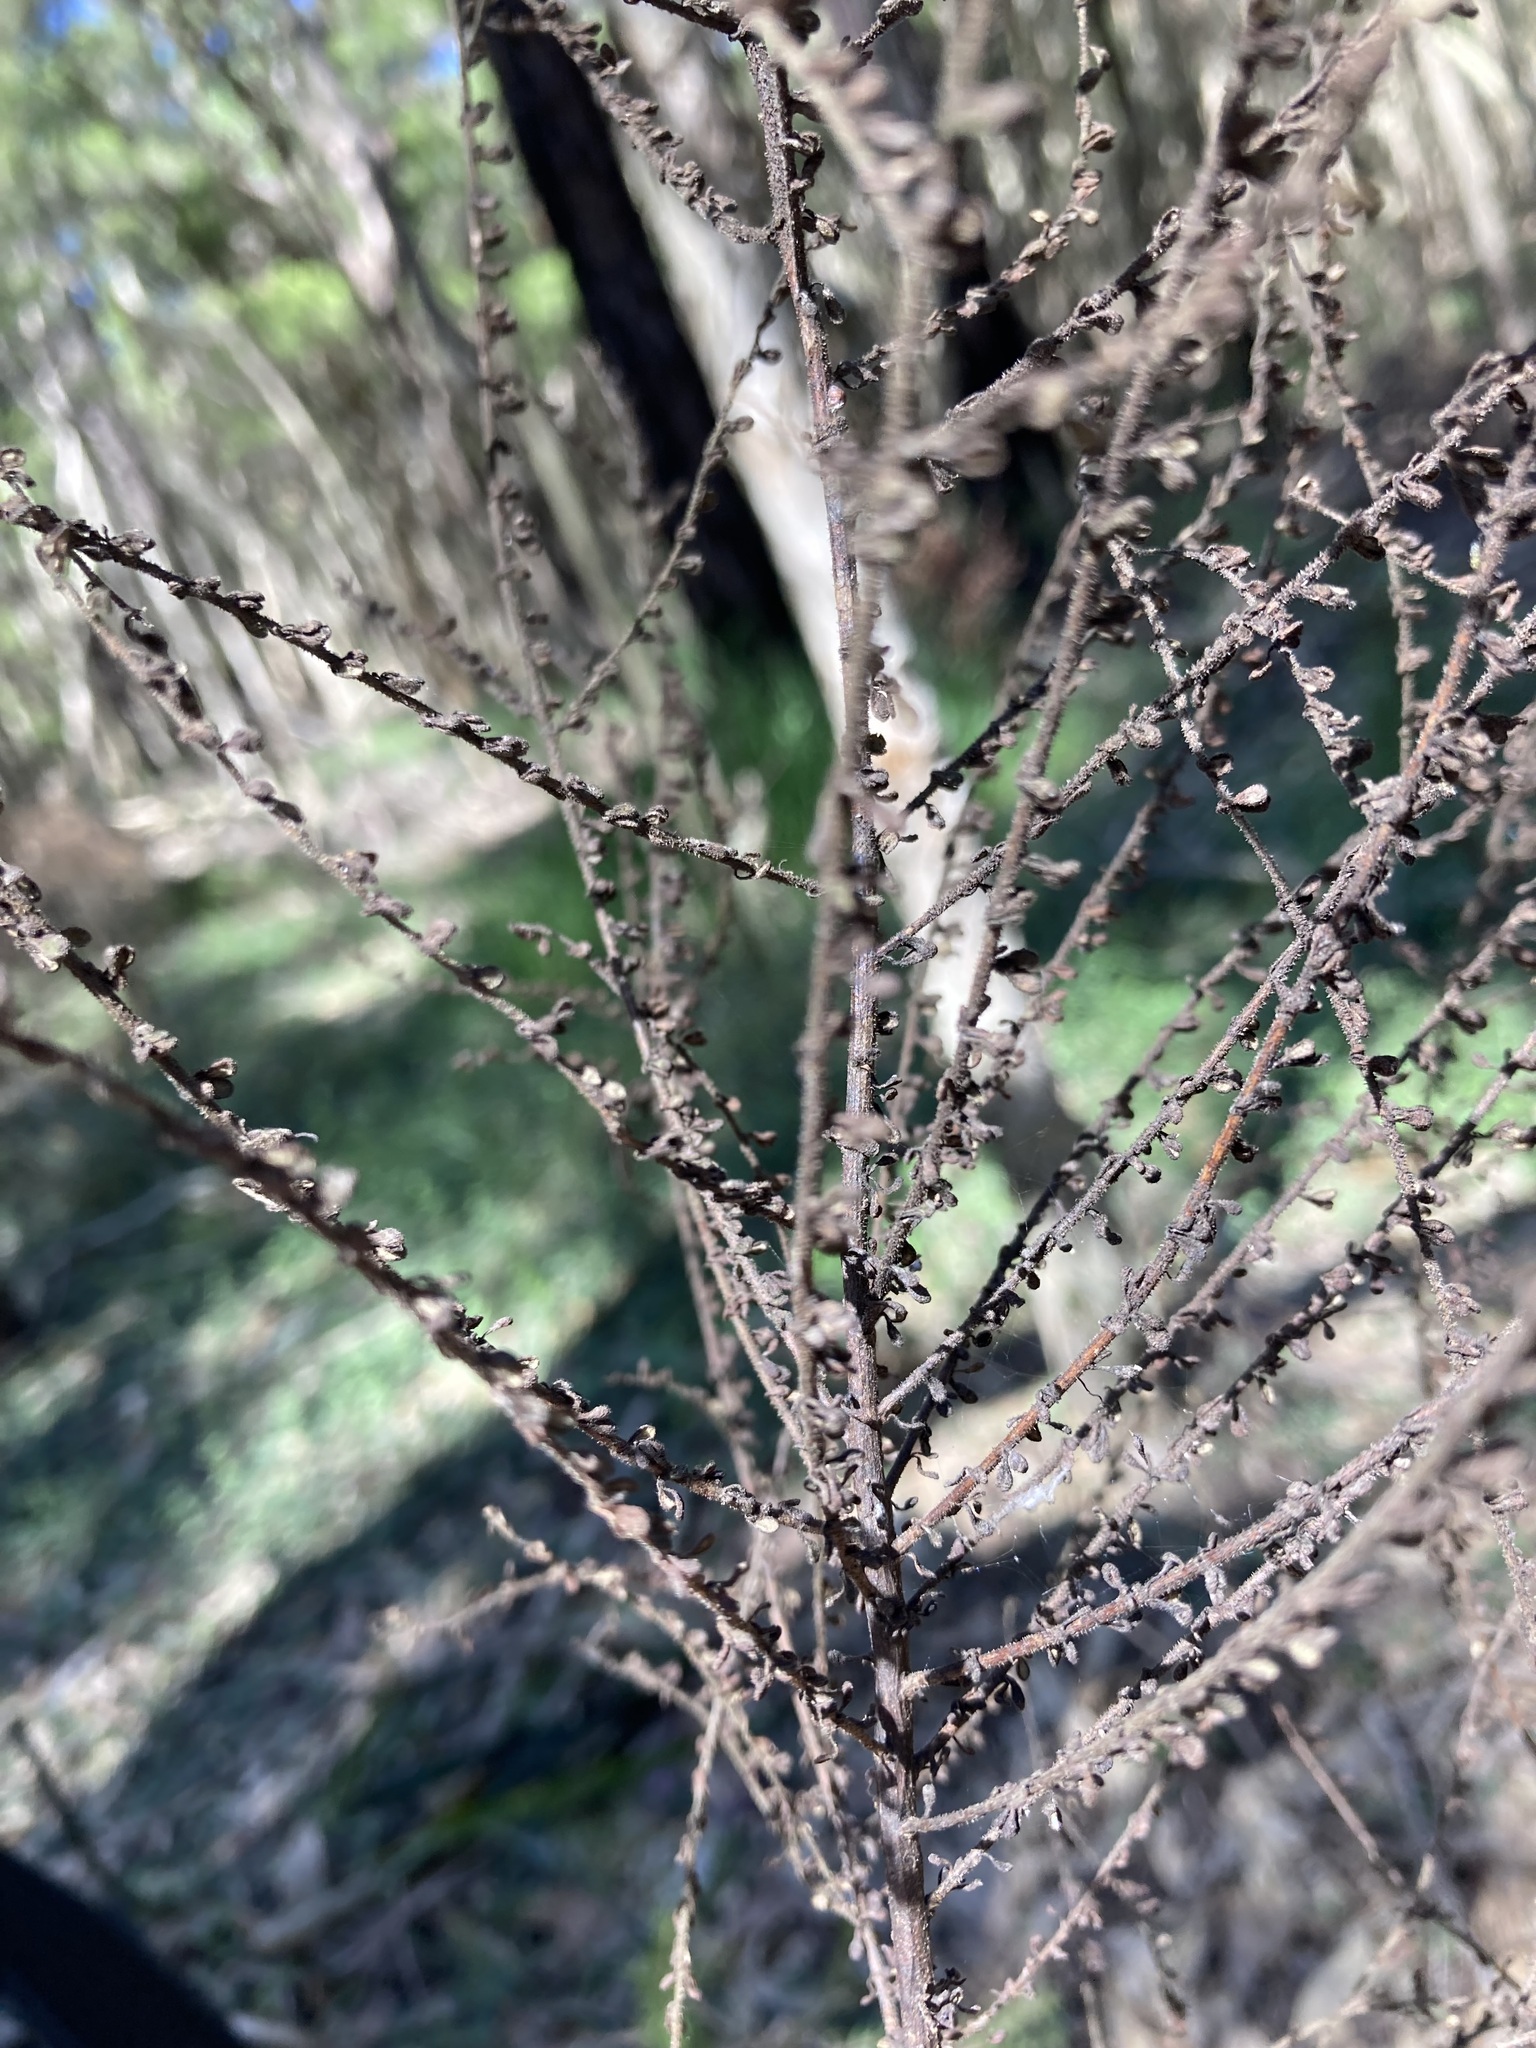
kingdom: Plantae
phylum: Tracheophyta
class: Magnoliopsida
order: Asterales
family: Asteraceae
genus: Olearia
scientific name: Olearia microphylla
